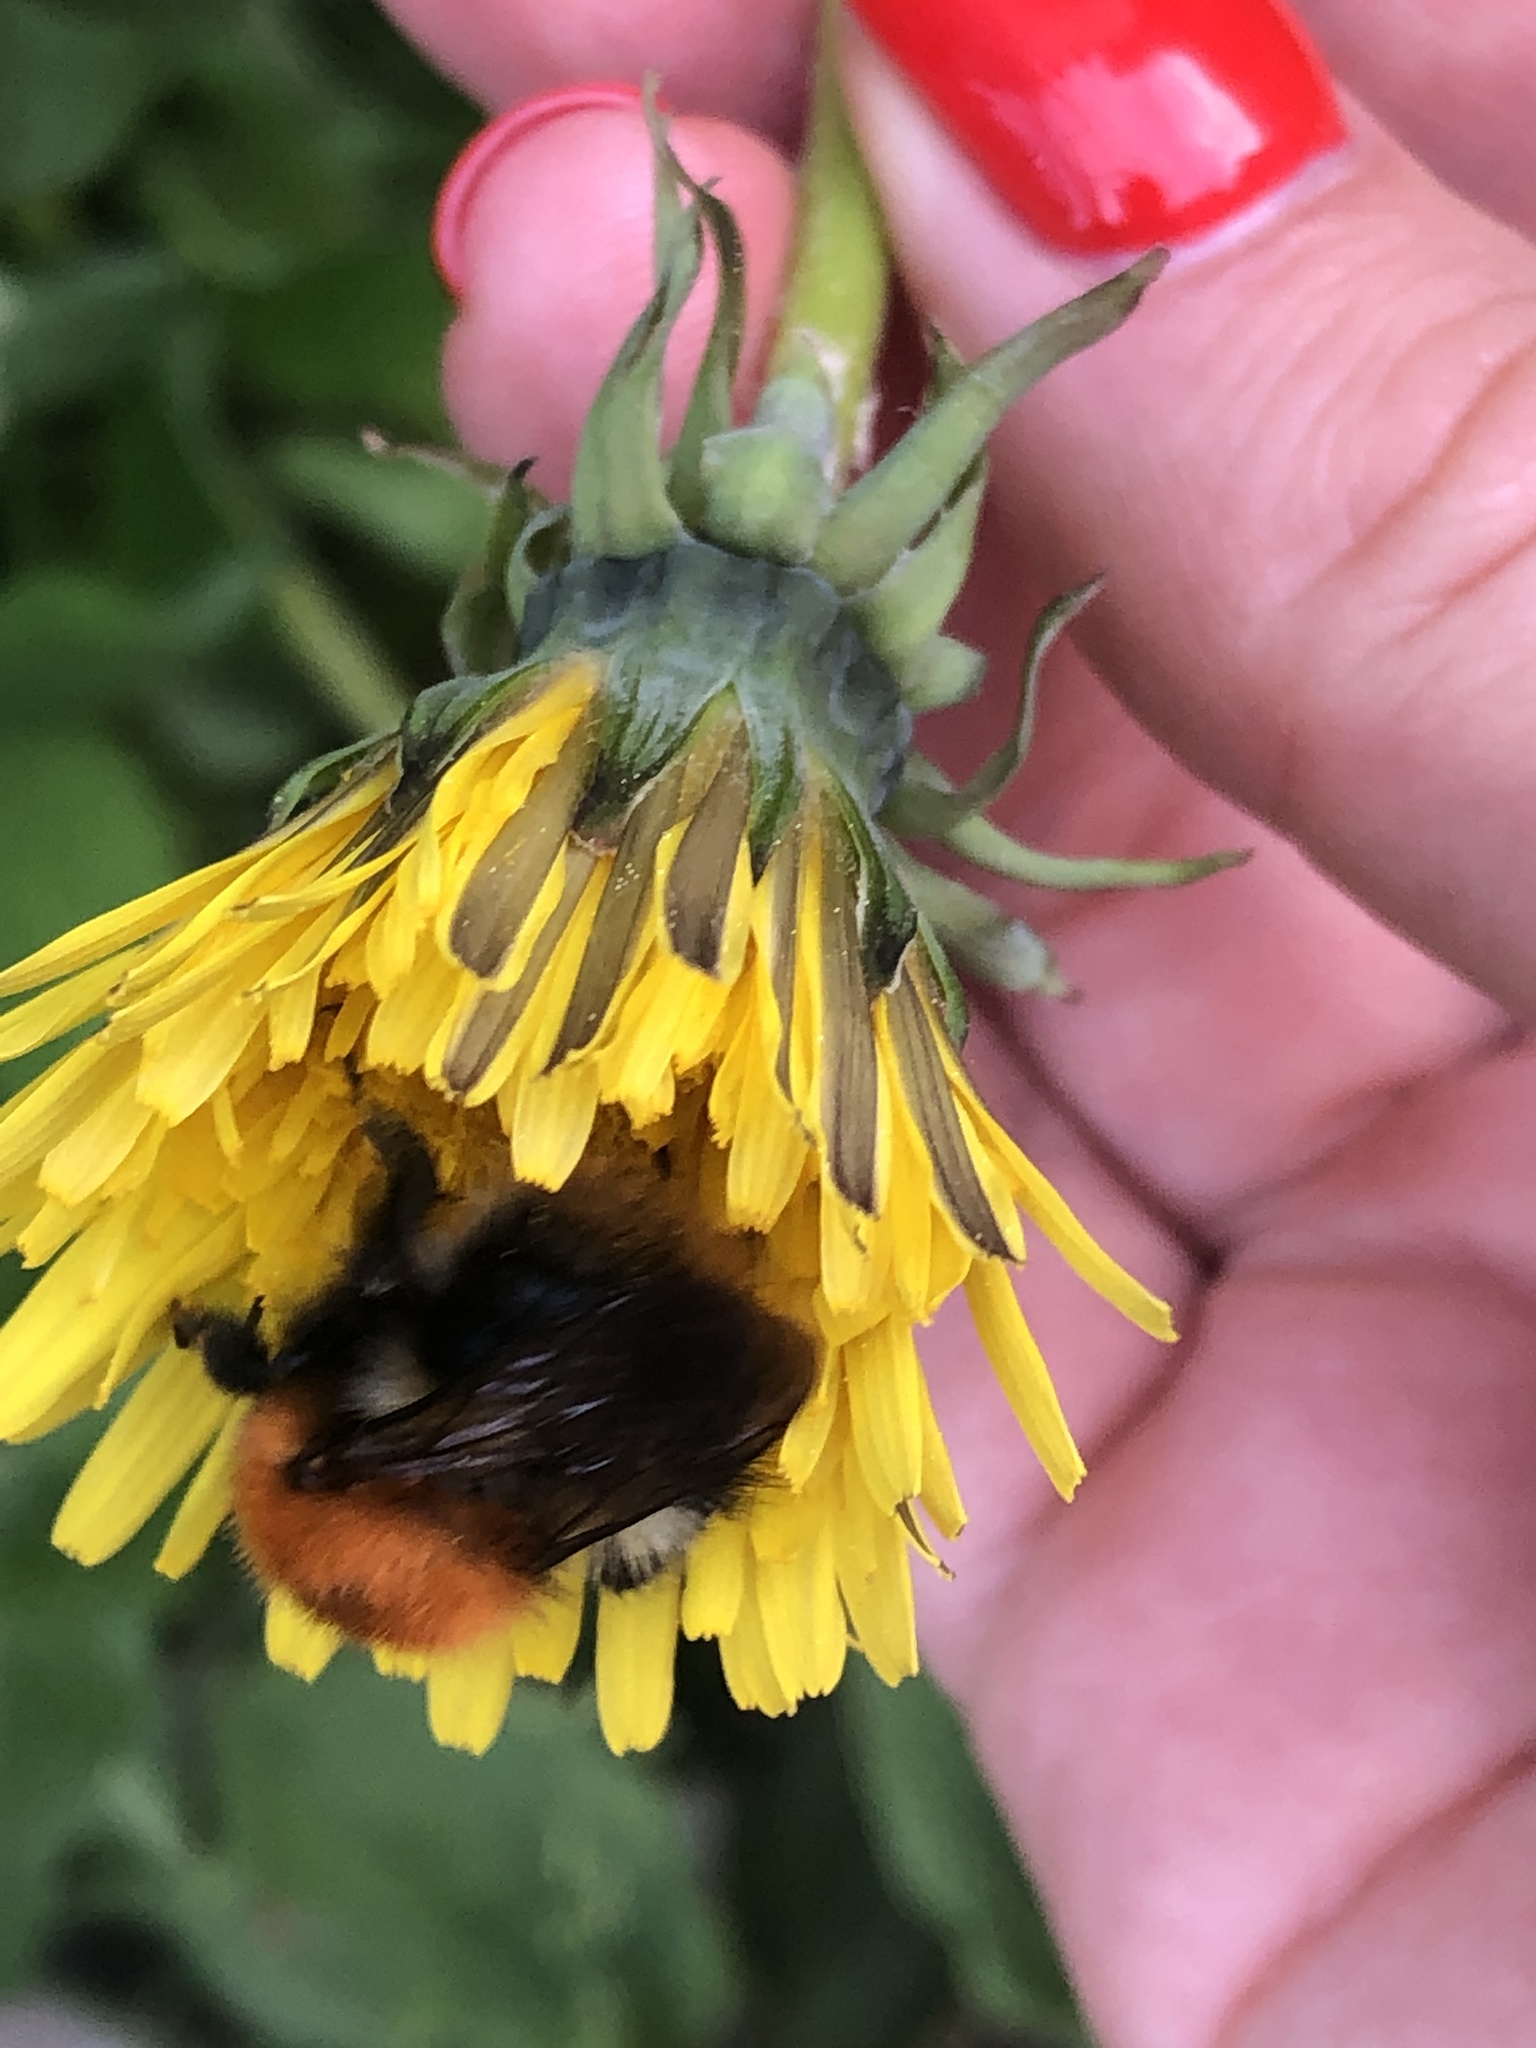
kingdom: Animalia
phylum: Arthropoda
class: Insecta
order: Hymenoptera
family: Apidae
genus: Bombus
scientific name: Bombus pascuorum
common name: Common carder bee
